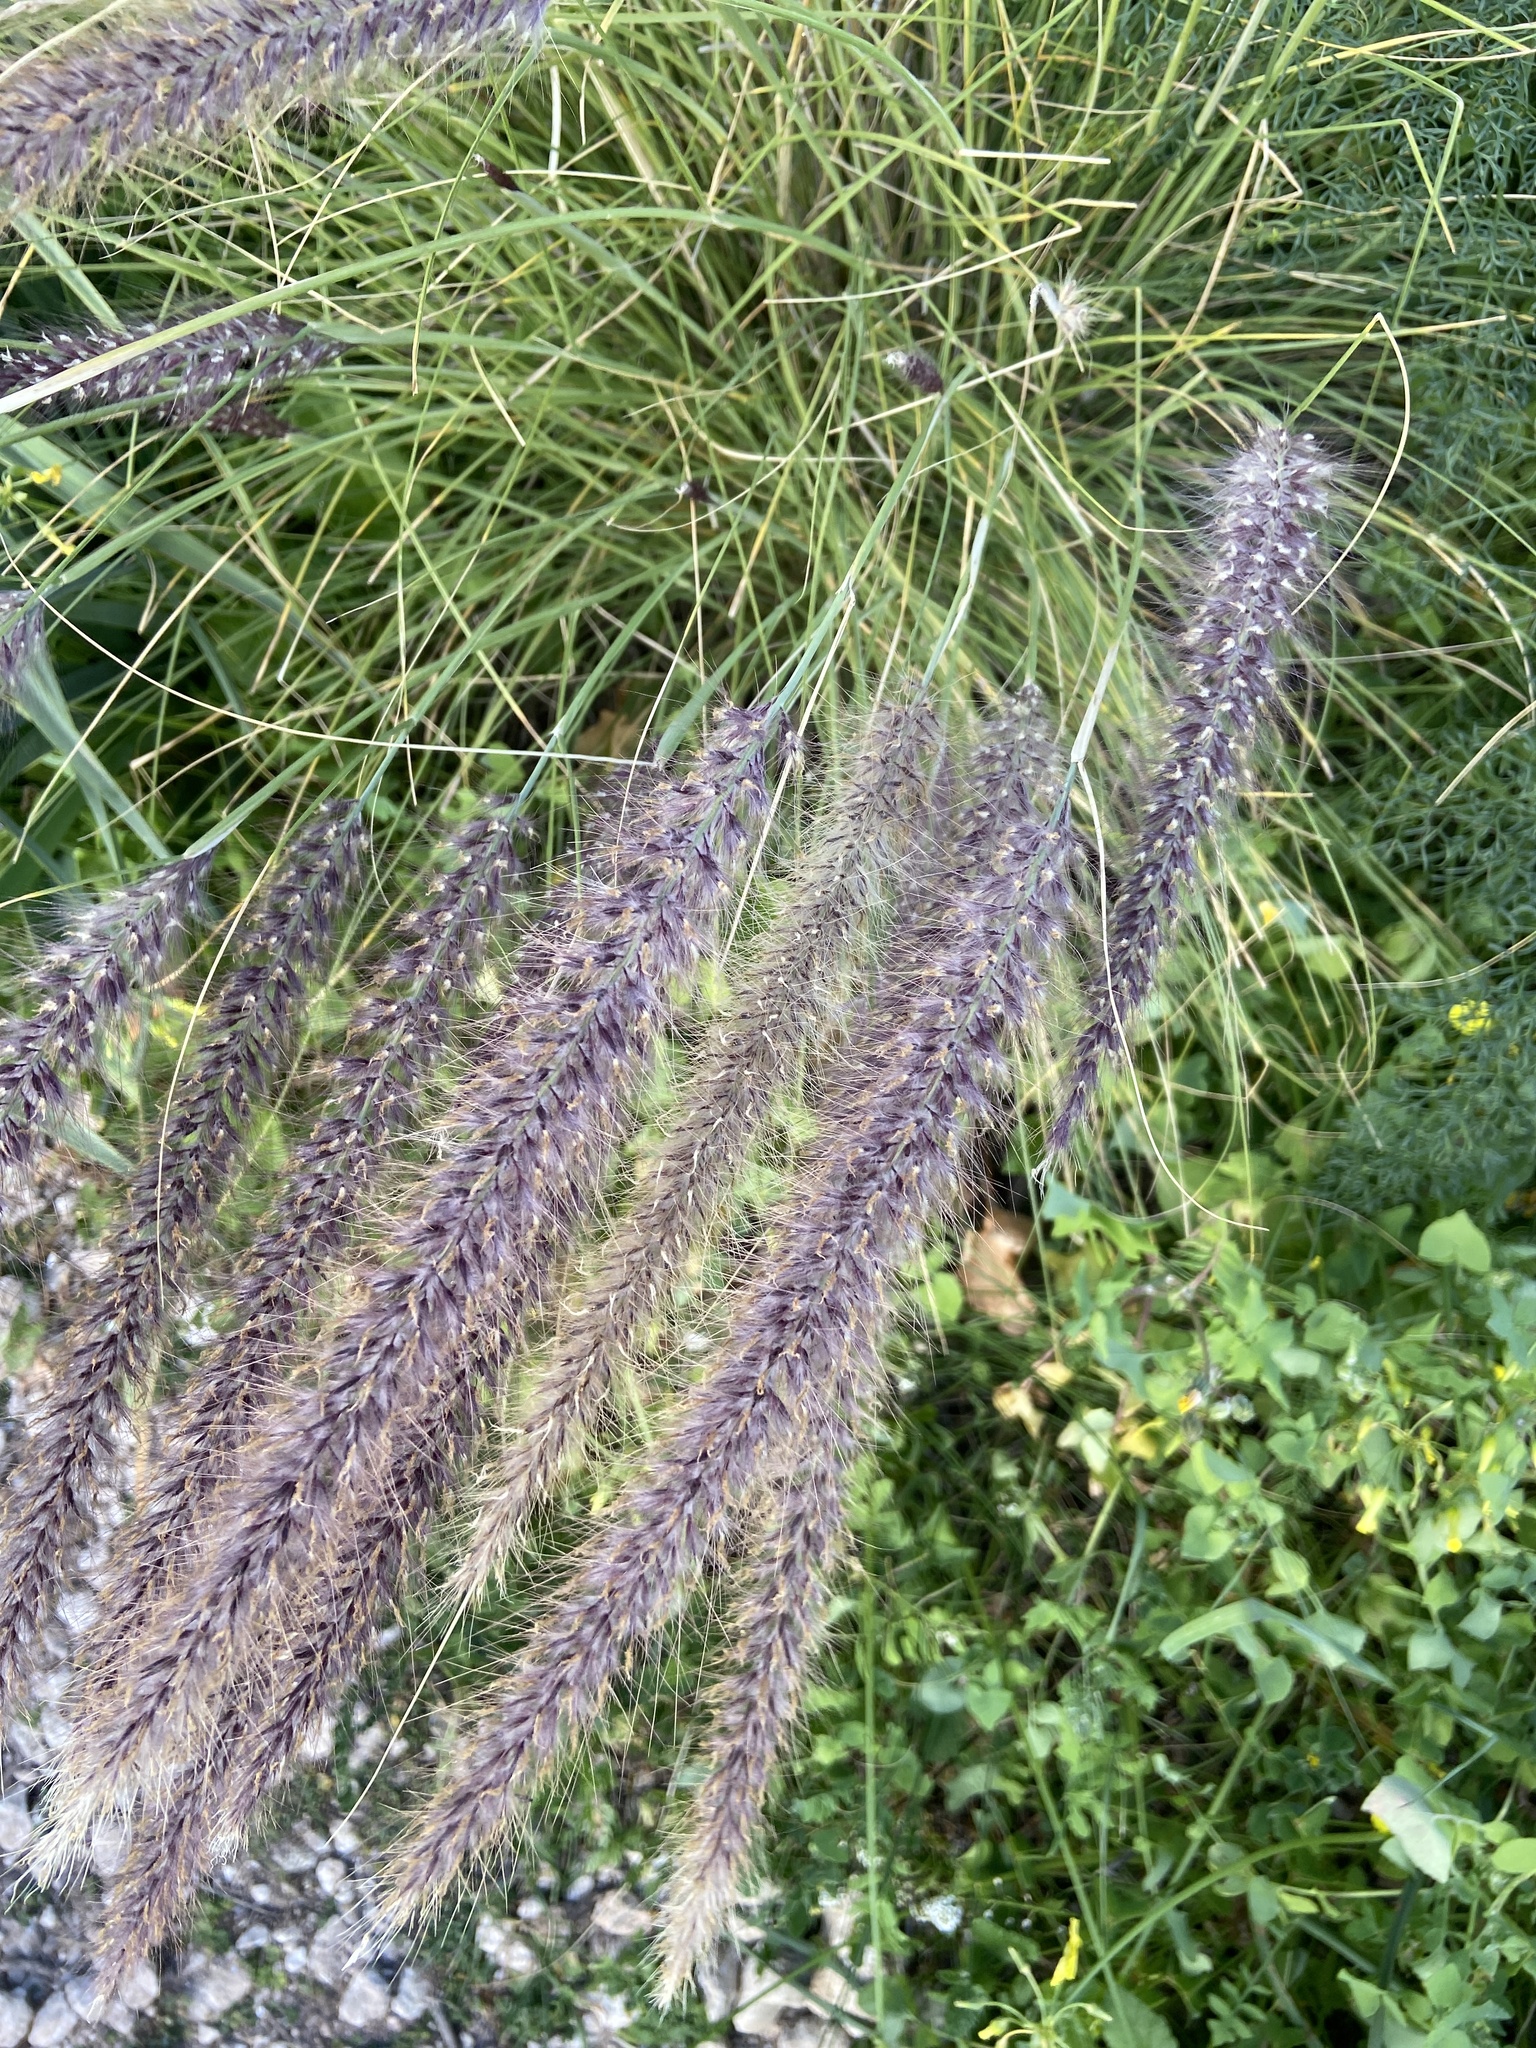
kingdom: Plantae
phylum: Tracheophyta
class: Liliopsida
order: Poales
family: Poaceae
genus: Cenchrus
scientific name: Cenchrus setaceus
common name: Crimson fountaingrass
